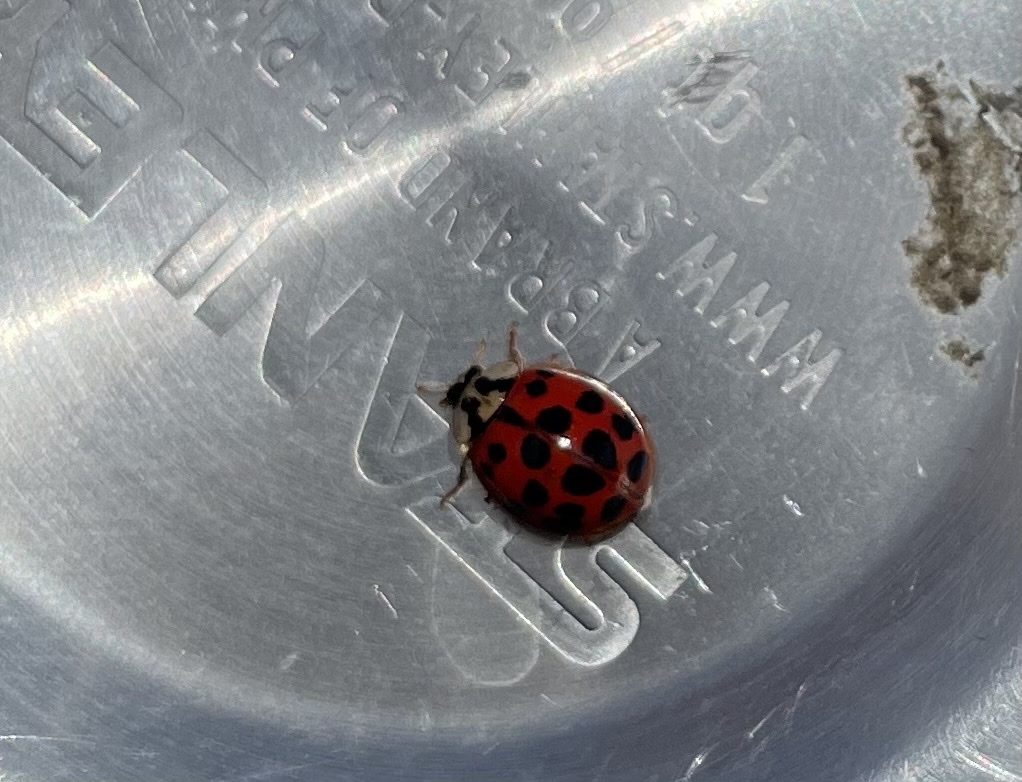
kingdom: Animalia
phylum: Arthropoda
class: Insecta
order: Coleoptera
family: Coccinellidae
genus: Harmonia
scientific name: Harmonia axyridis
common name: Harlequin ladybird
